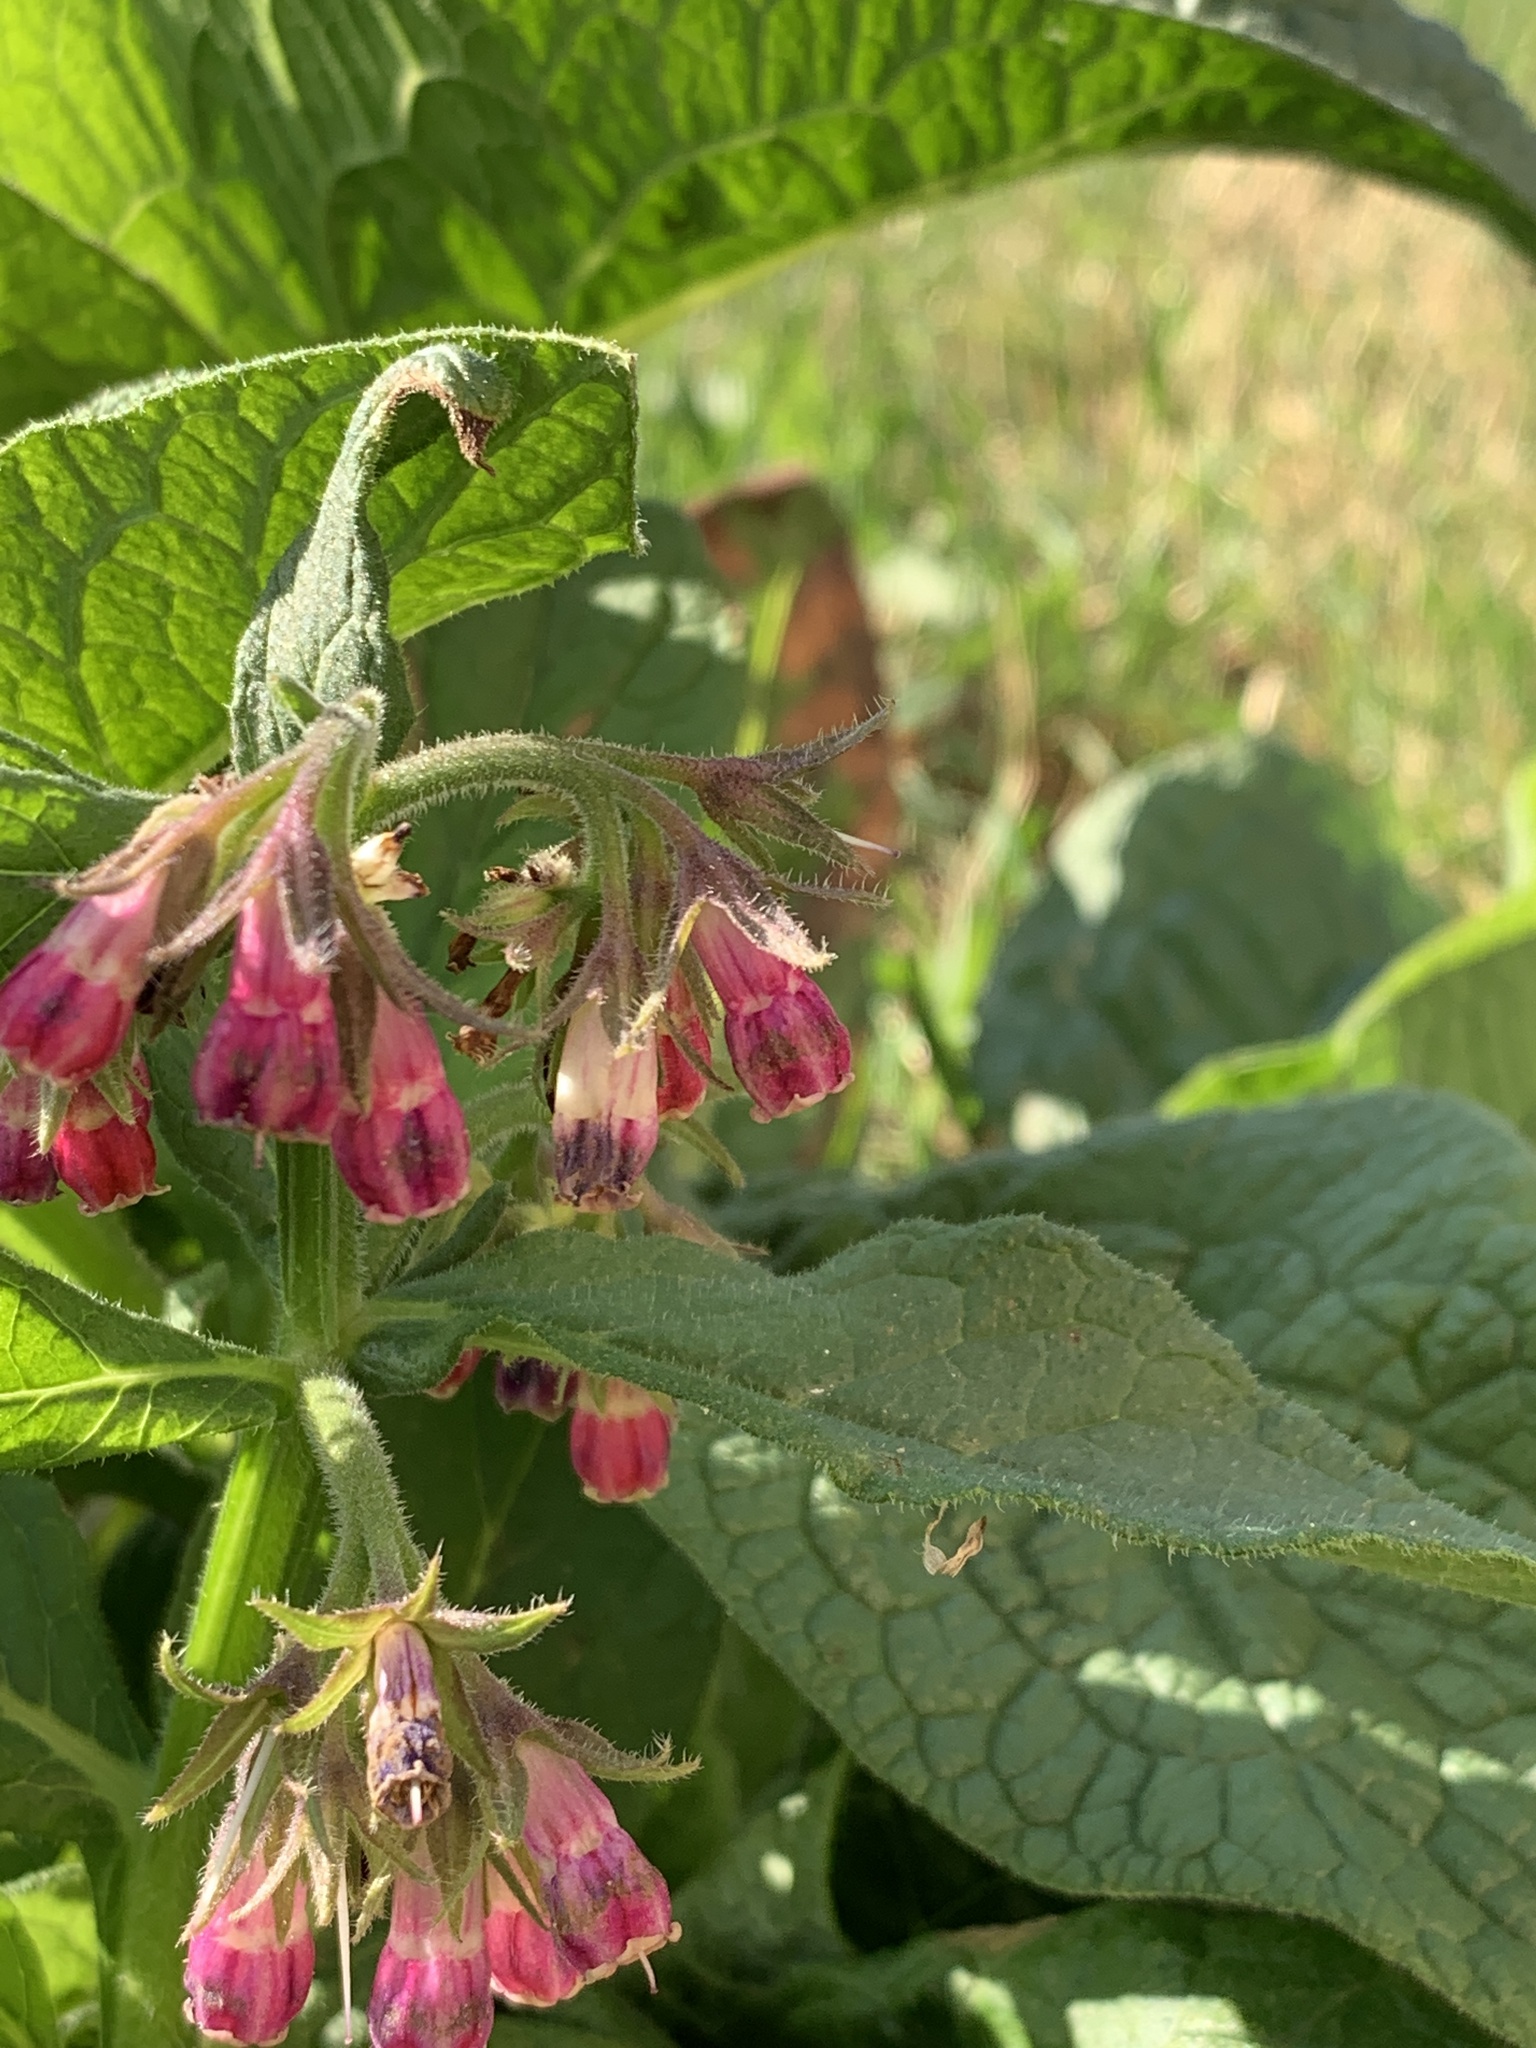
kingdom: Plantae
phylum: Tracheophyta
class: Magnoliopsida
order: Boraginales
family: Boraginaceae
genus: Symphytum
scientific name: Symphytum officinale
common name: Common comfrey
